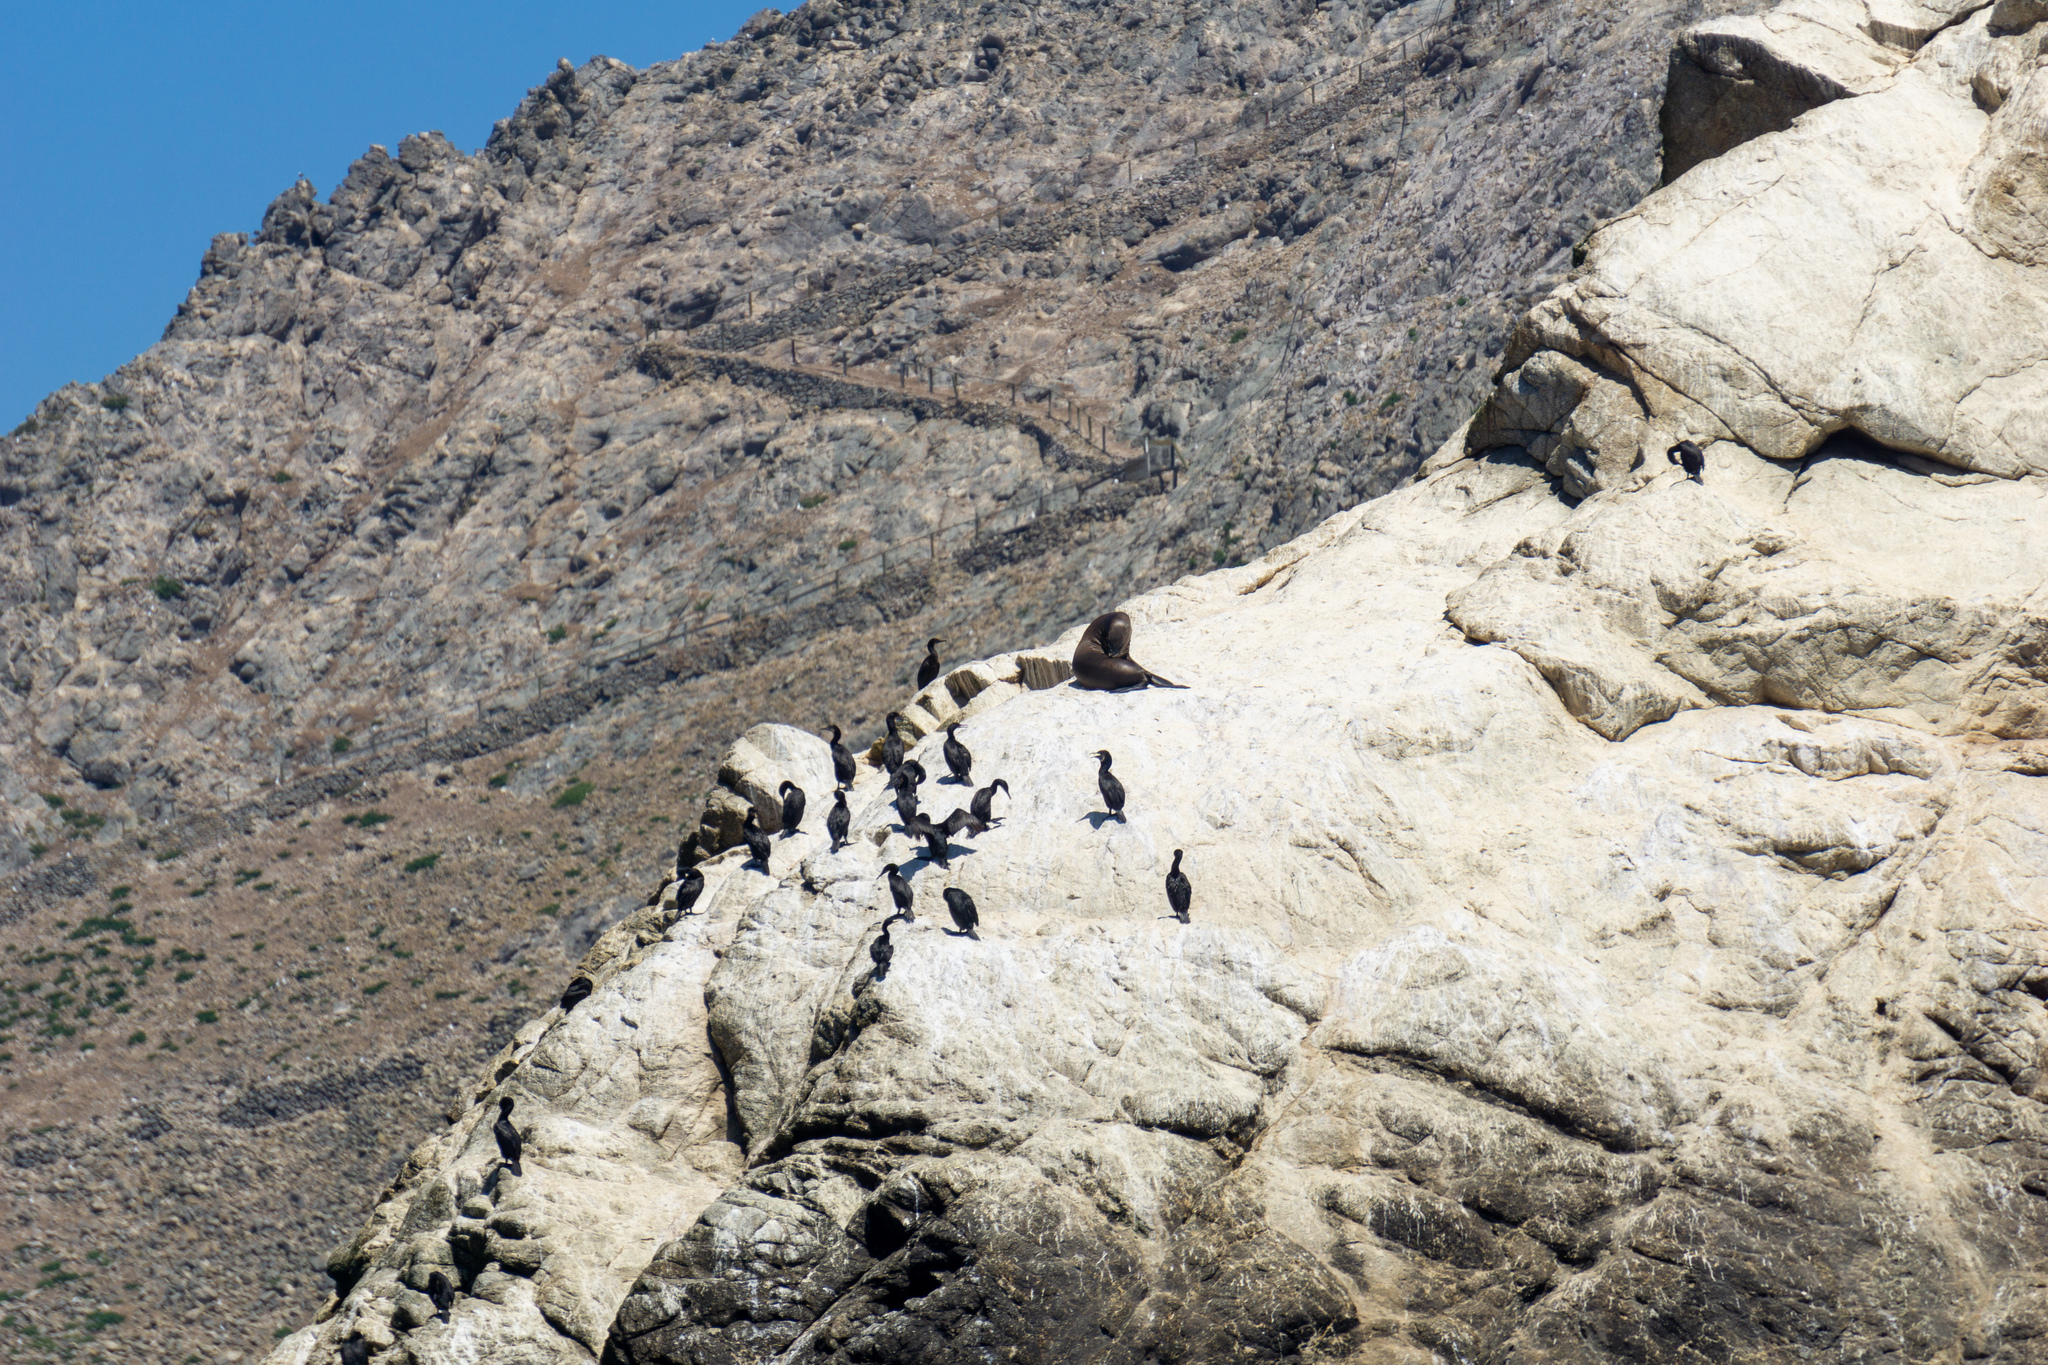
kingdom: Animalia
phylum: Chordata
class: Mammalia
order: Carnivora
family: Otariidae
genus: Zalophus
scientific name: Zalophus californianus
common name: California sea lion
